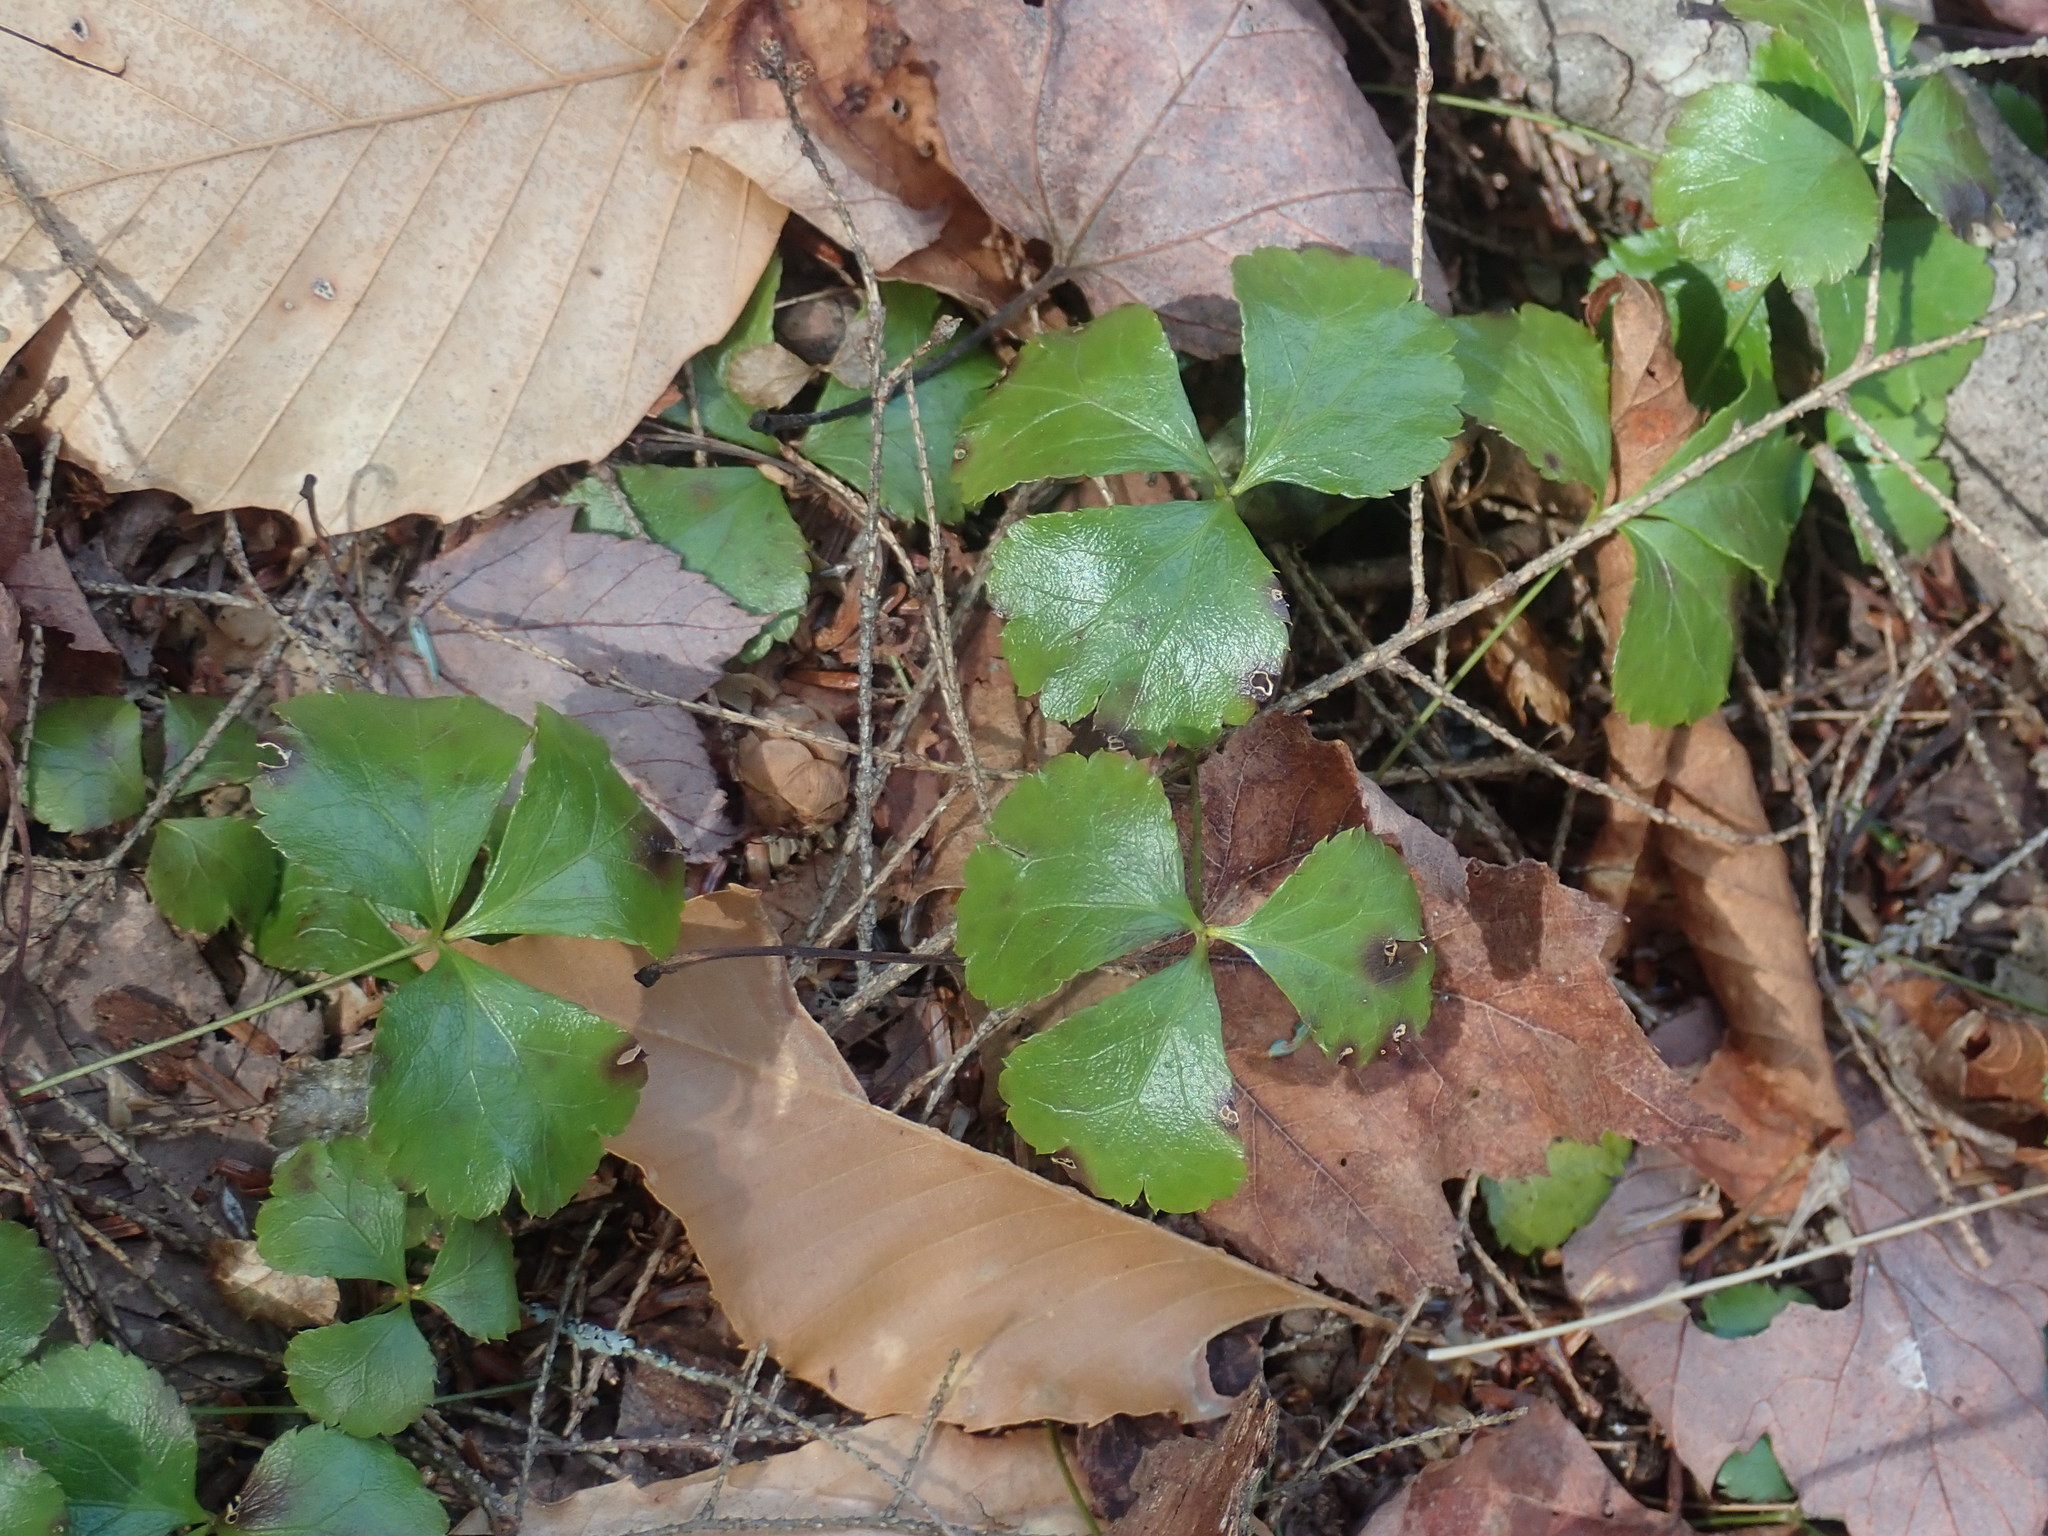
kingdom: Plantae
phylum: Tracheophyta
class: Magnoliopsida
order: Ranunculales
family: Ranunculaceae
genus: Coptis
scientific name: Coptis trifolia
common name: Canker-root
